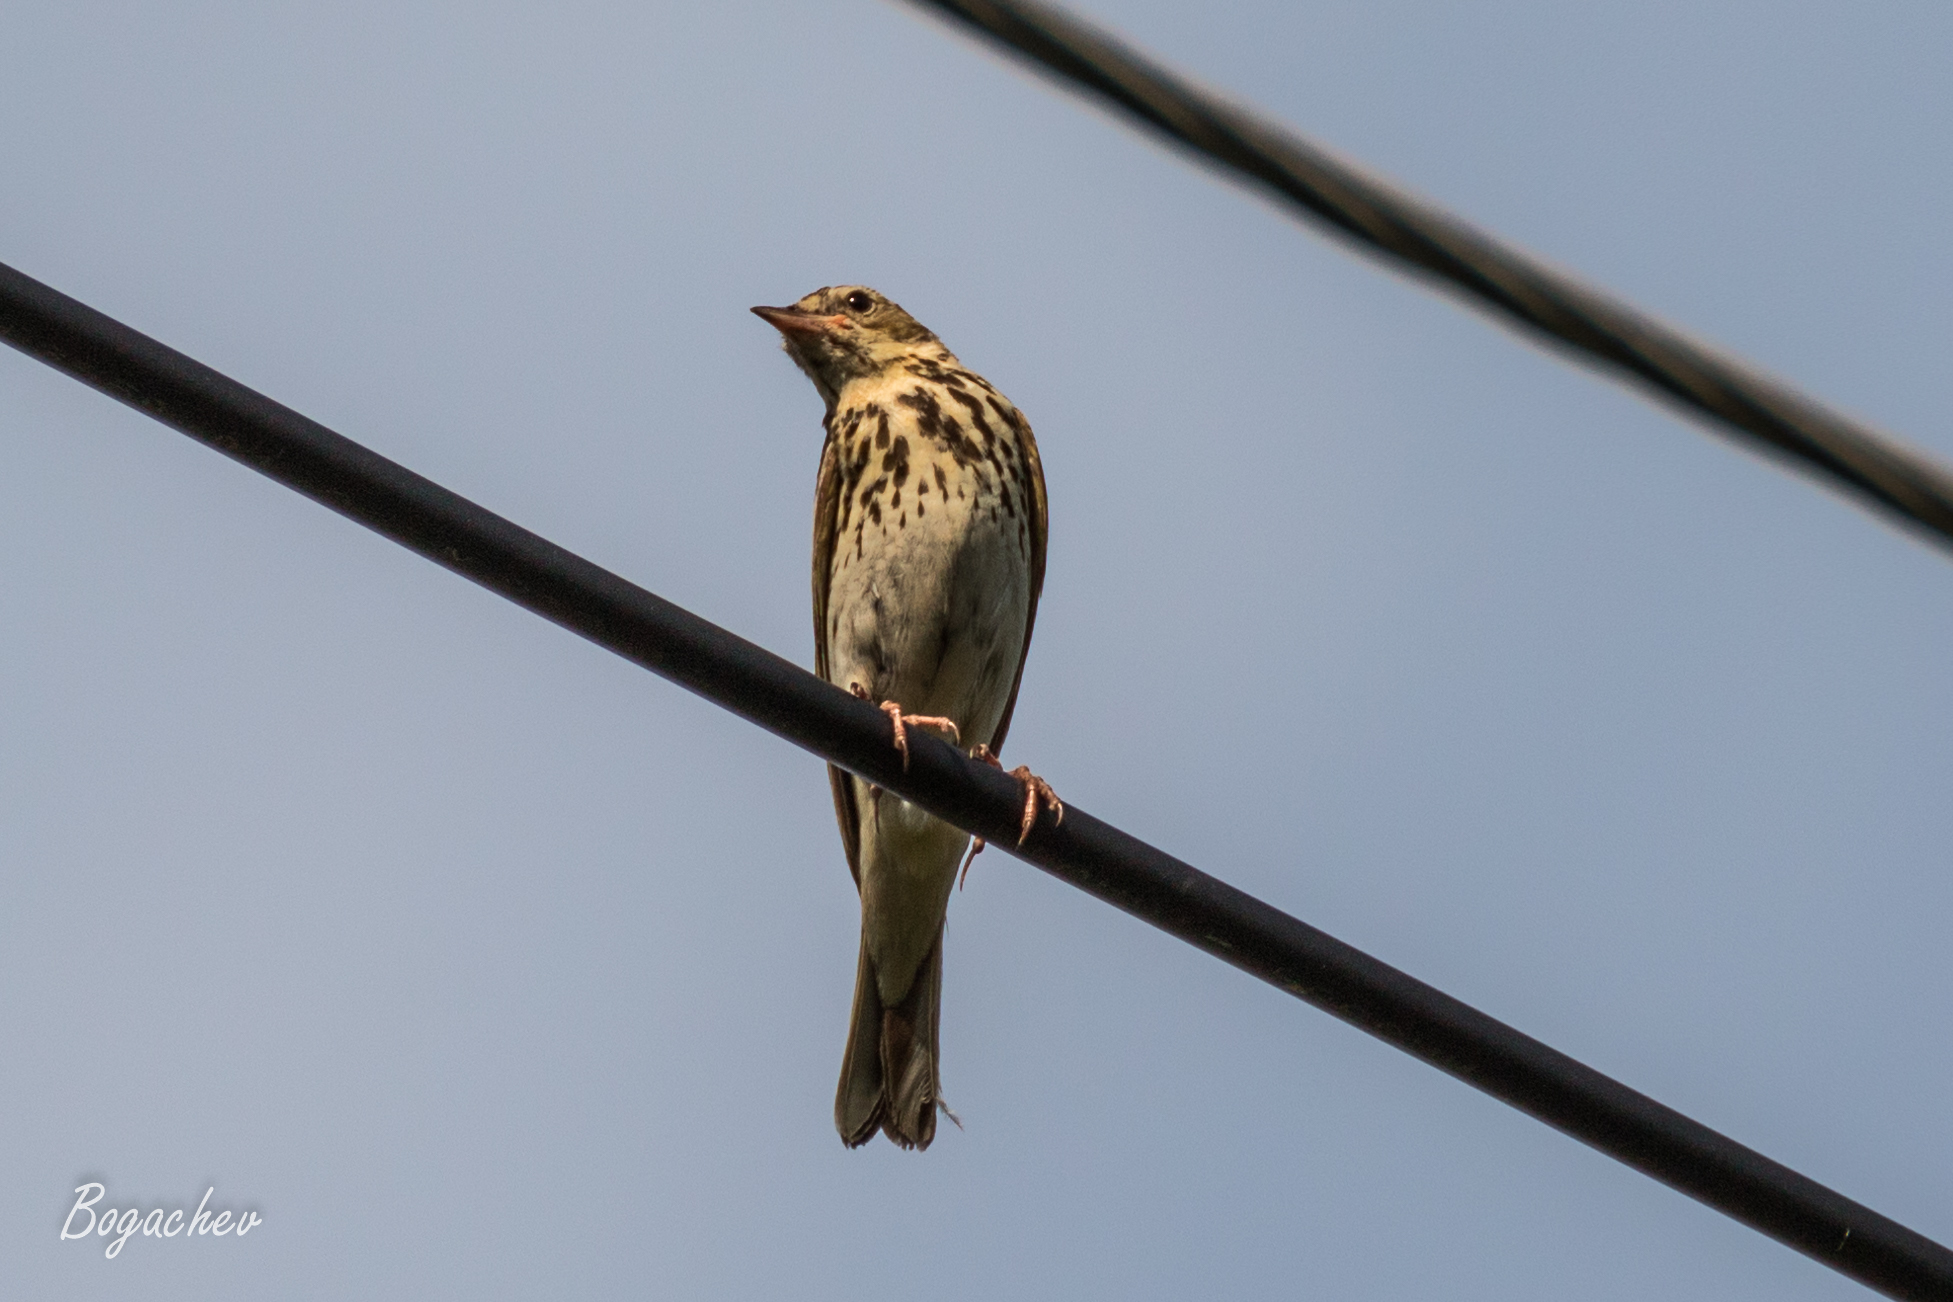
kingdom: Animalia
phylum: Chordata
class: Aves
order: Passeriformes
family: Motacillidae
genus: Anthus
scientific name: Anthus trivialis
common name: Tree pipit
